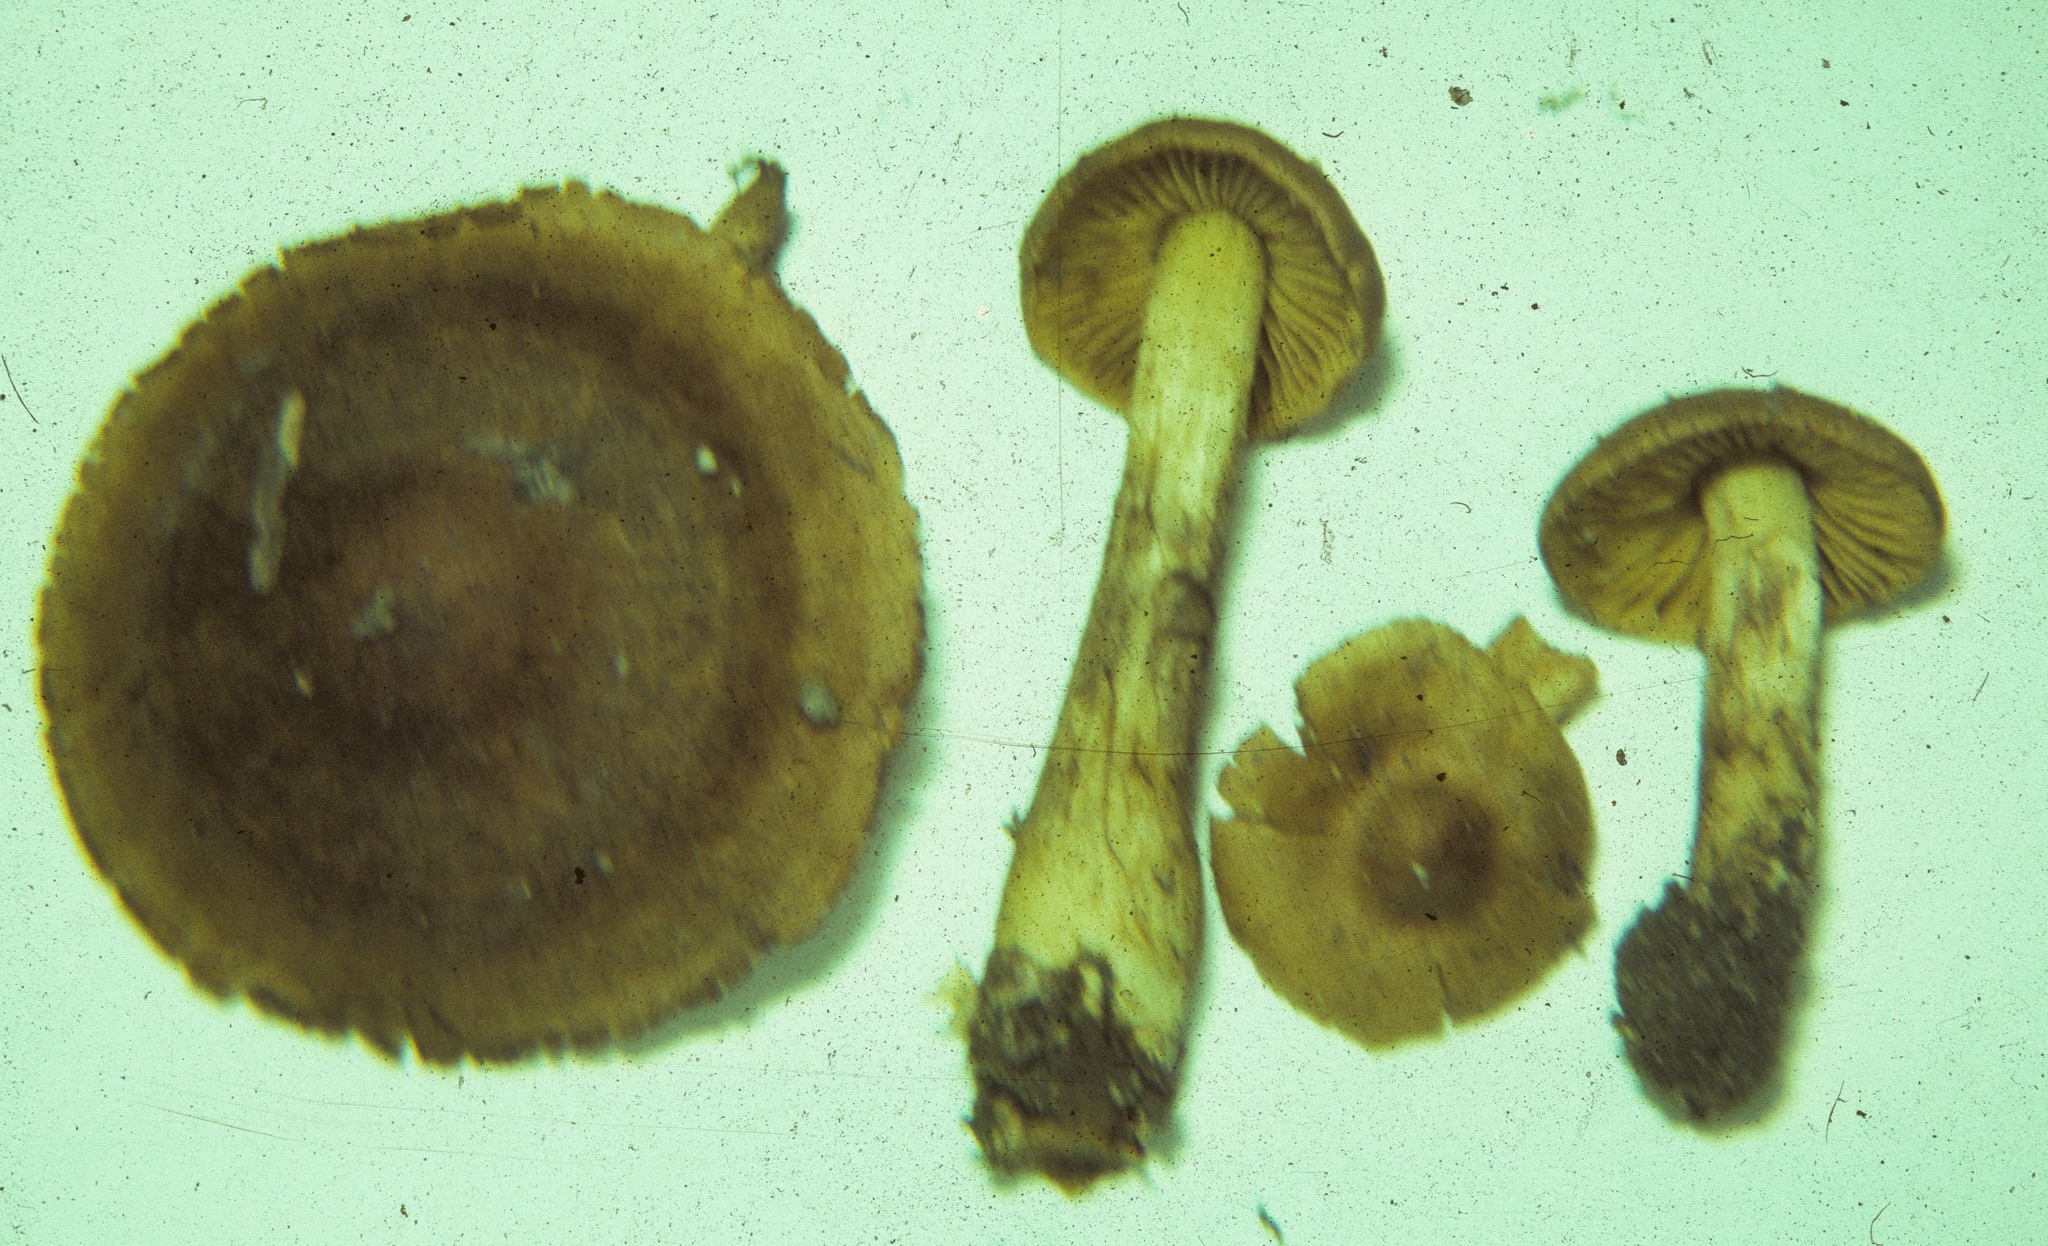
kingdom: Fungi
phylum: Basidiomycota
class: Agaricomycetes
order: Agaricales
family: Cortinariaceae
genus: Cortinarius
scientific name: Cortinarius olivaceofuscus
